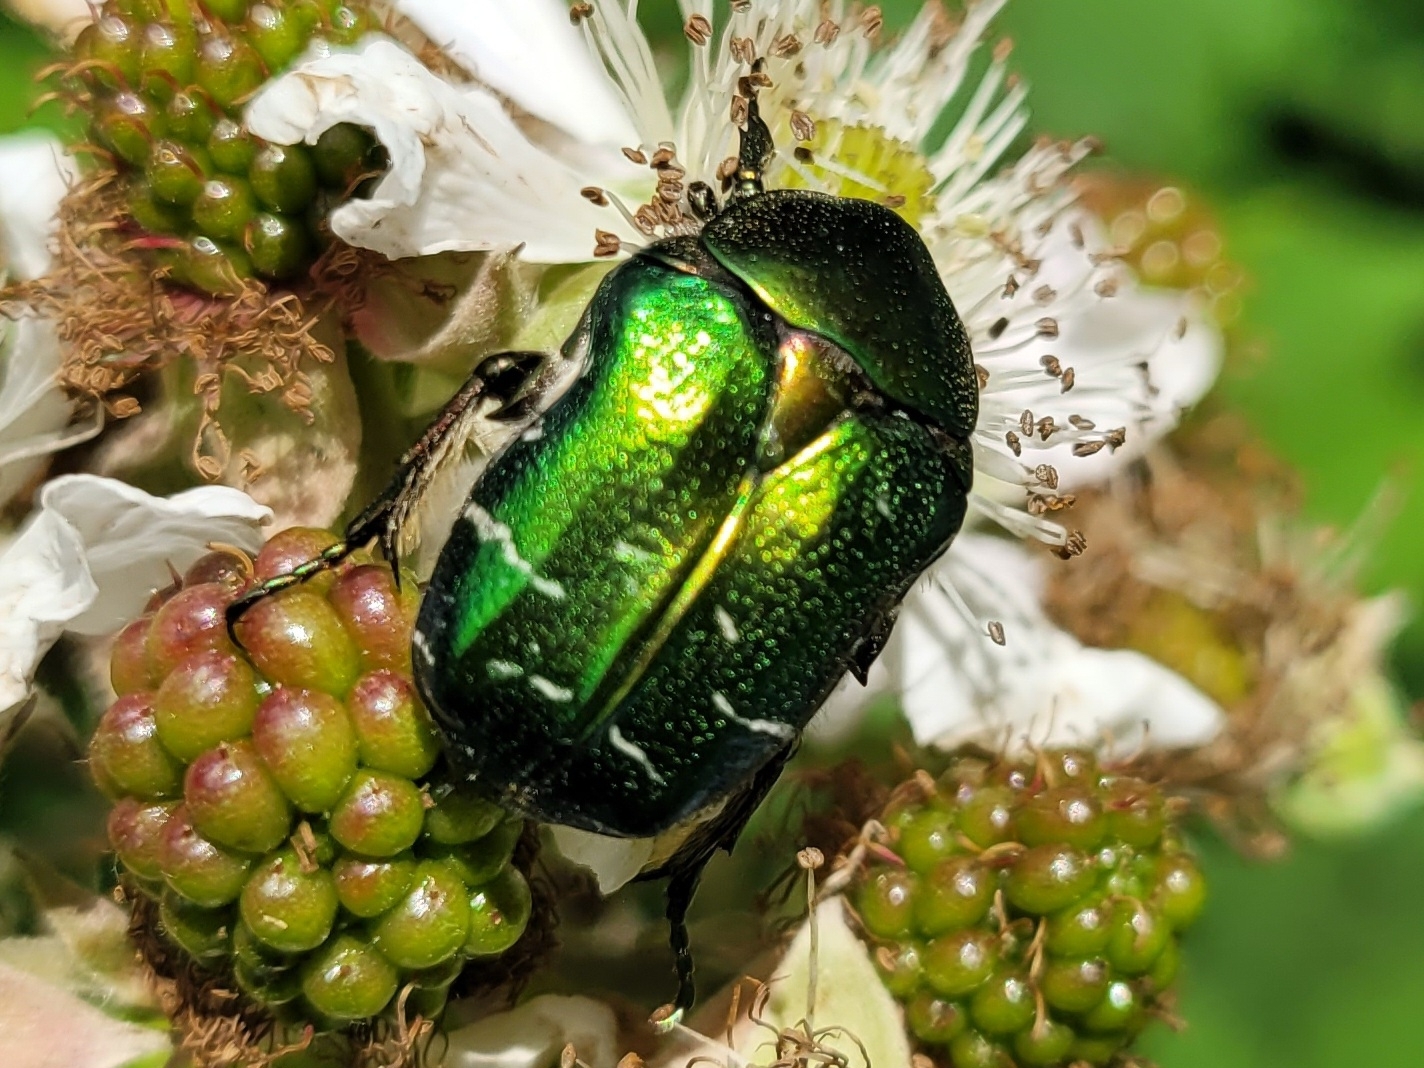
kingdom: Animalia
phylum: Arthropoda
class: Insecta
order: Coleoptera
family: Scarabaeidae
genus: Cetonia
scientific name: Cetonia aurata
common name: Rose chafer
